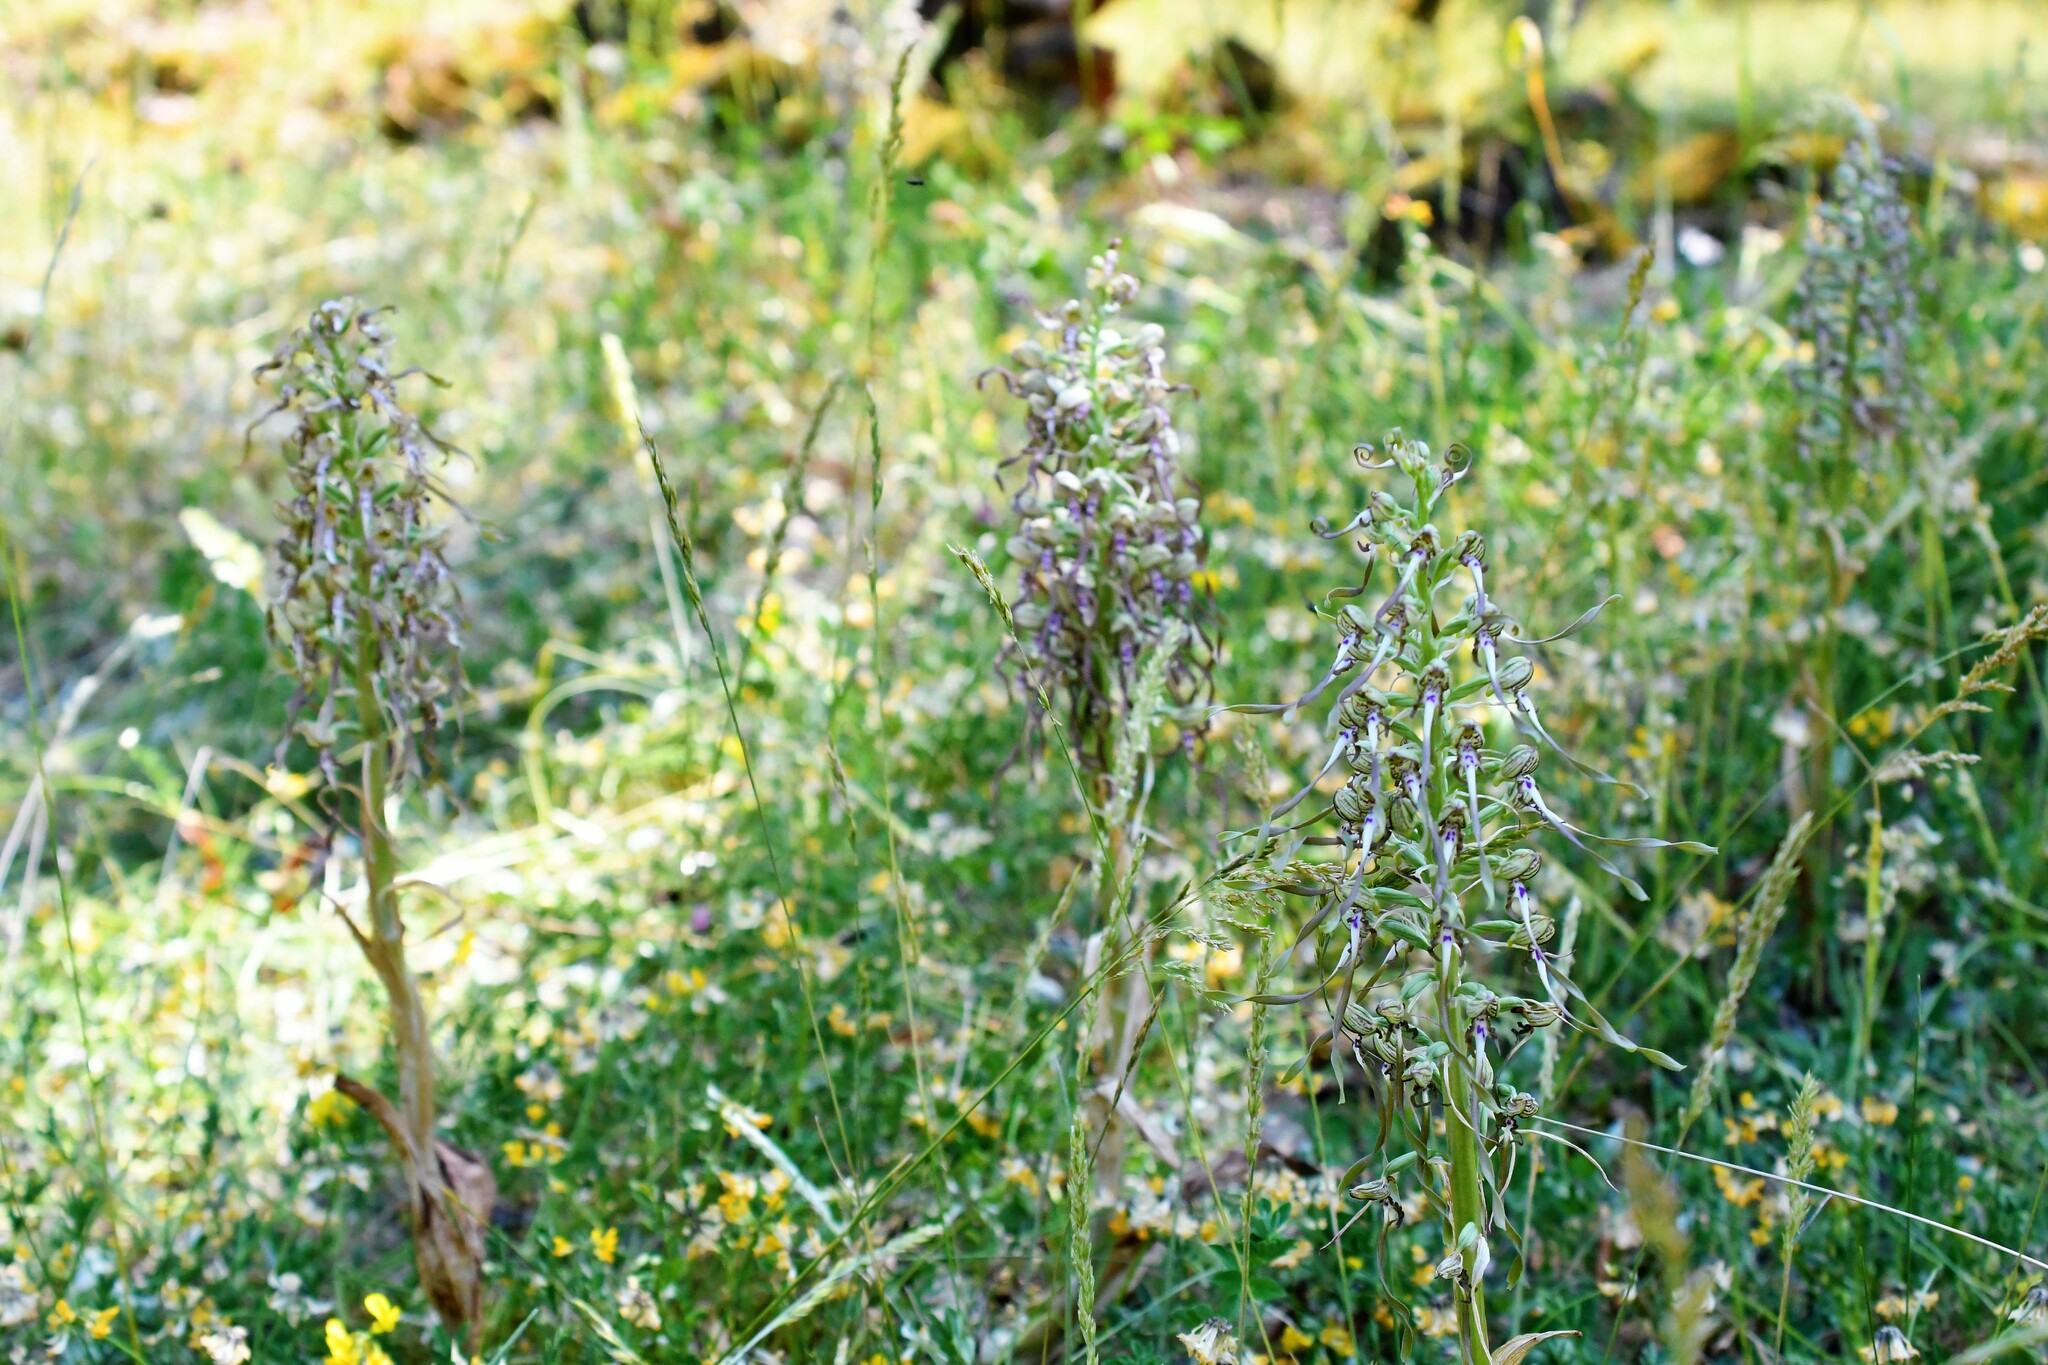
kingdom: Plantae
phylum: Tracheophyta
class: Liliopsida
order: Asparagales
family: Orchidaceae
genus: Himantoglossum
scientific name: Himantoglossum hircinum
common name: Lizard orchid
